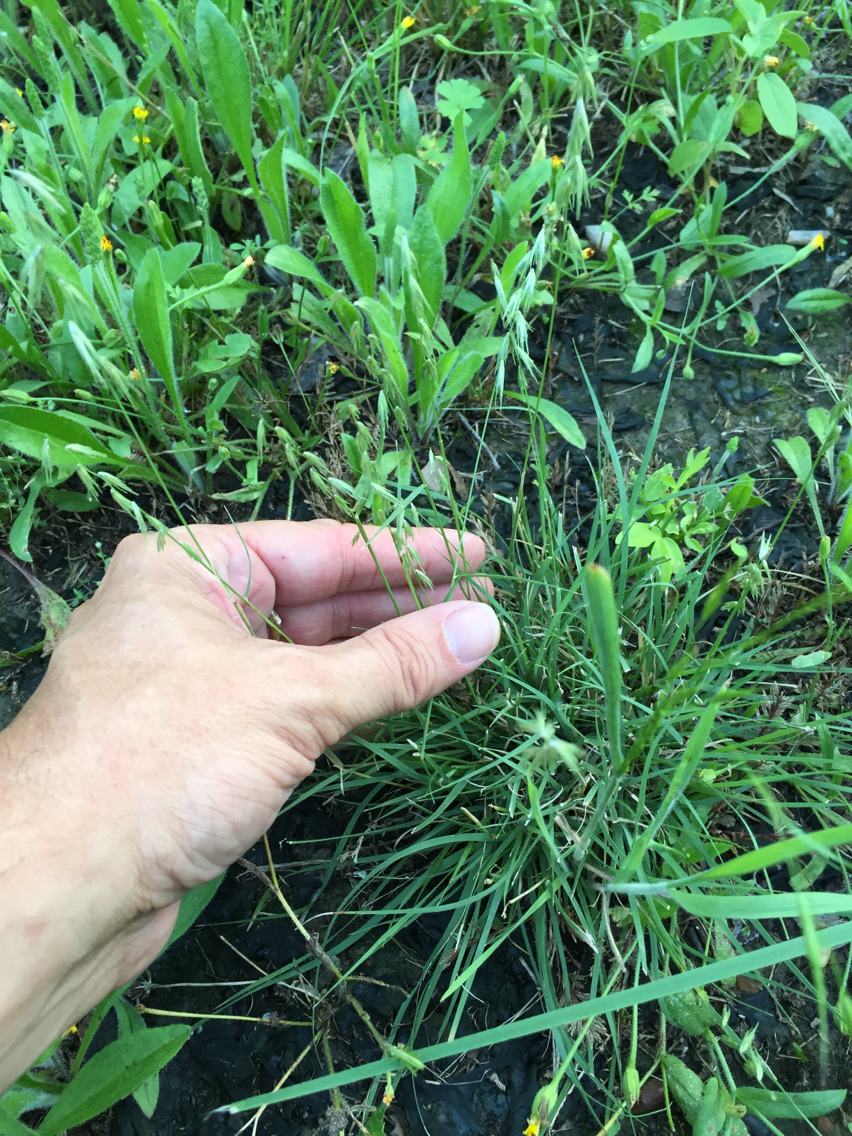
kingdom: Plantae
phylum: Tracheophyta
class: Liliopsida
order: Poales
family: Poaceae
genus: Bouteloua
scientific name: Bouteloua rigidiseta
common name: Texas grama
